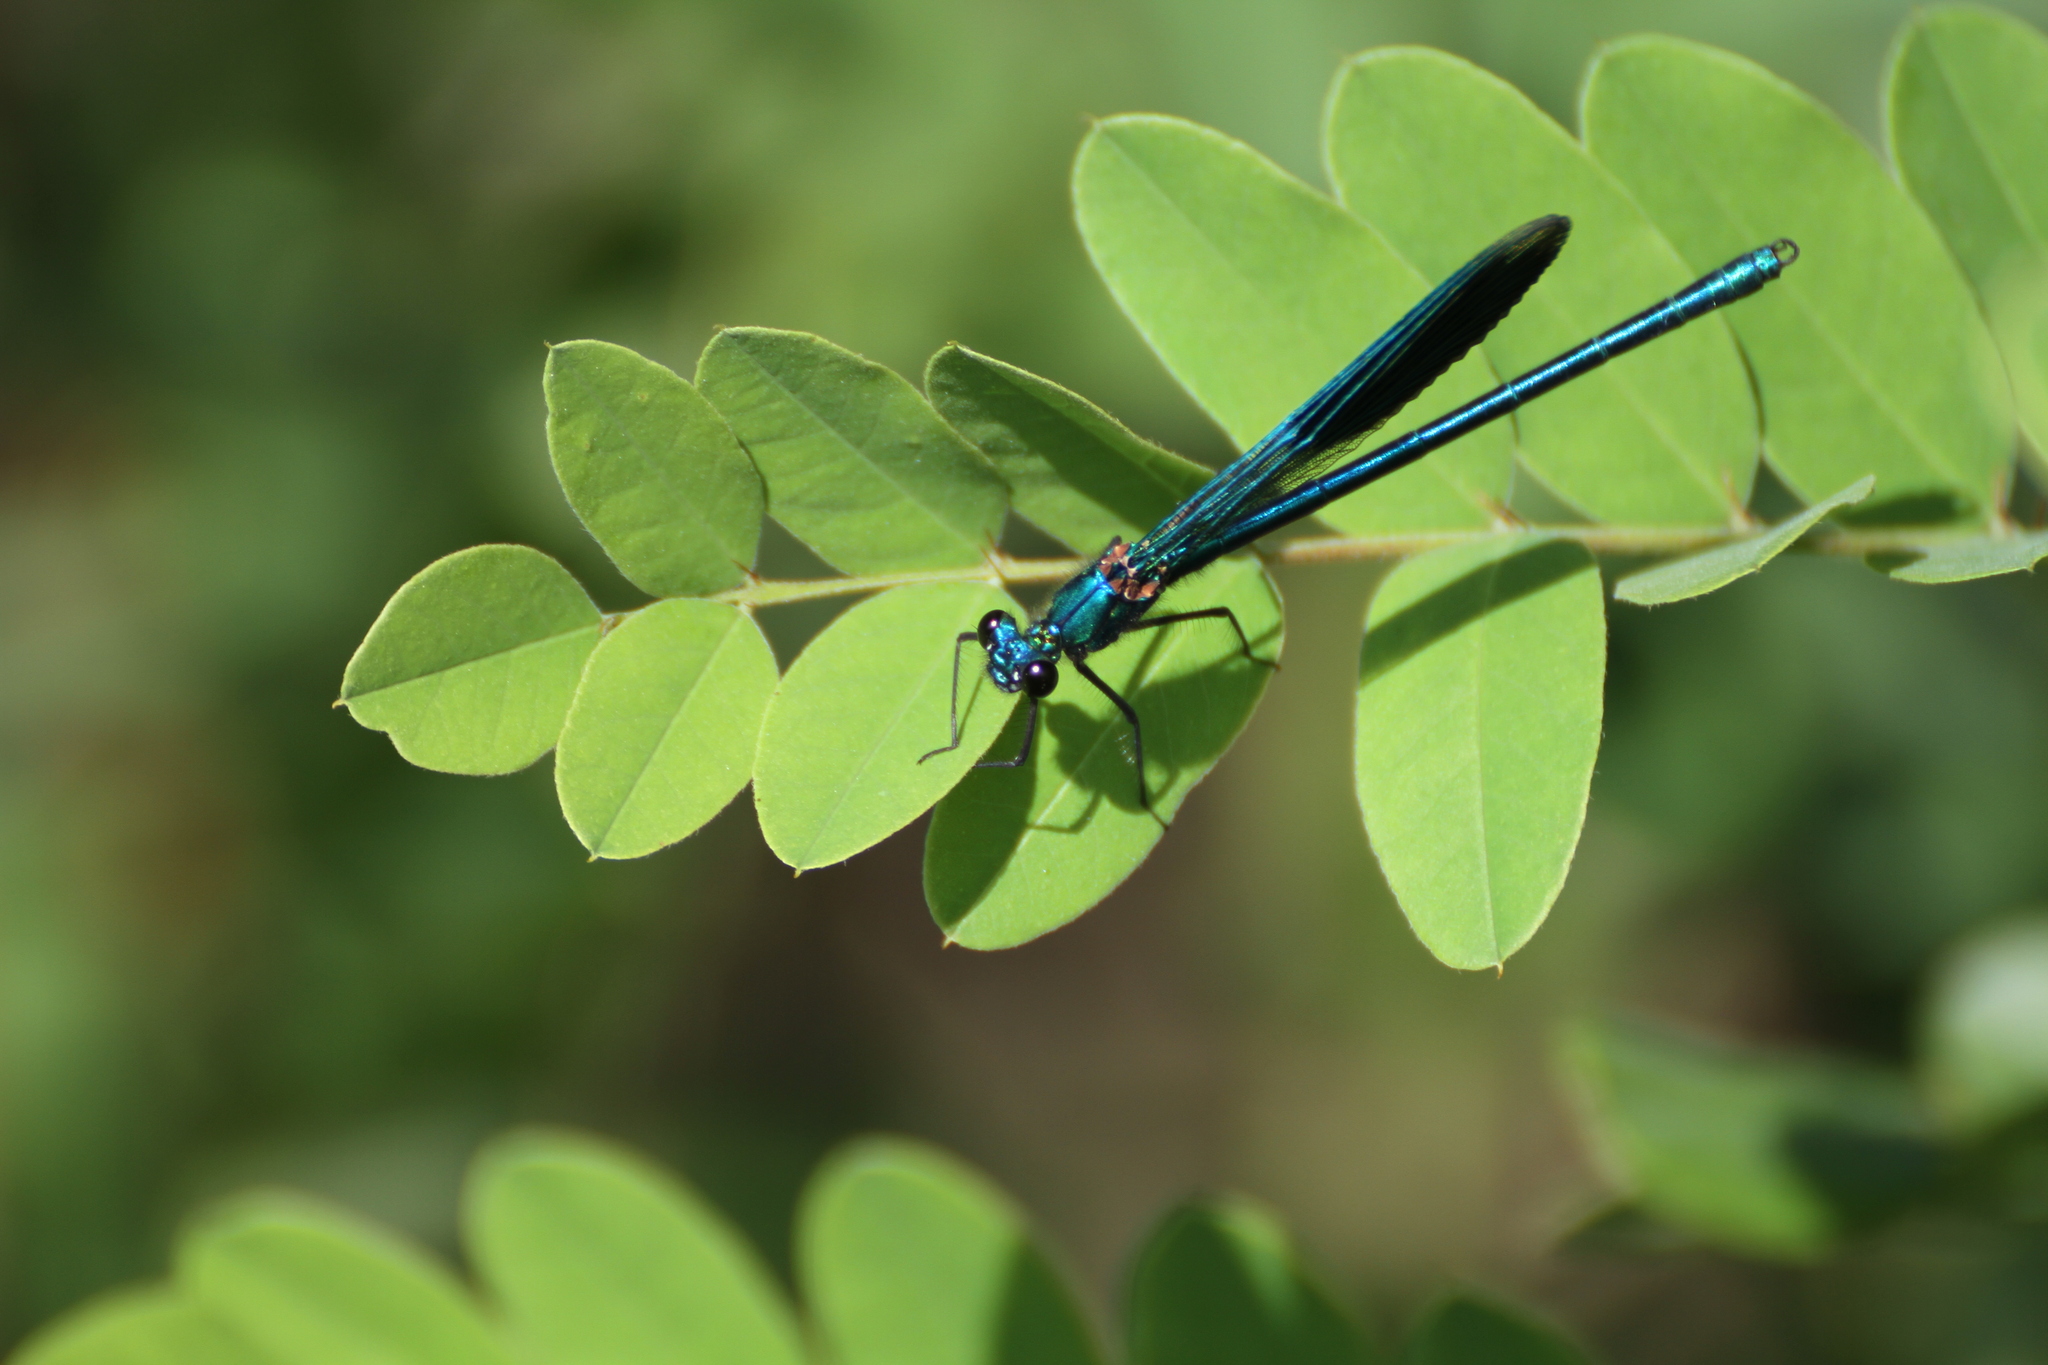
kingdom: Animalia
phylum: Arthropoda
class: Insecta
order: Odonata
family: Calopterygidae
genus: Calopteryx
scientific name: Calopteryx splendens
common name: Banded demoiselle
